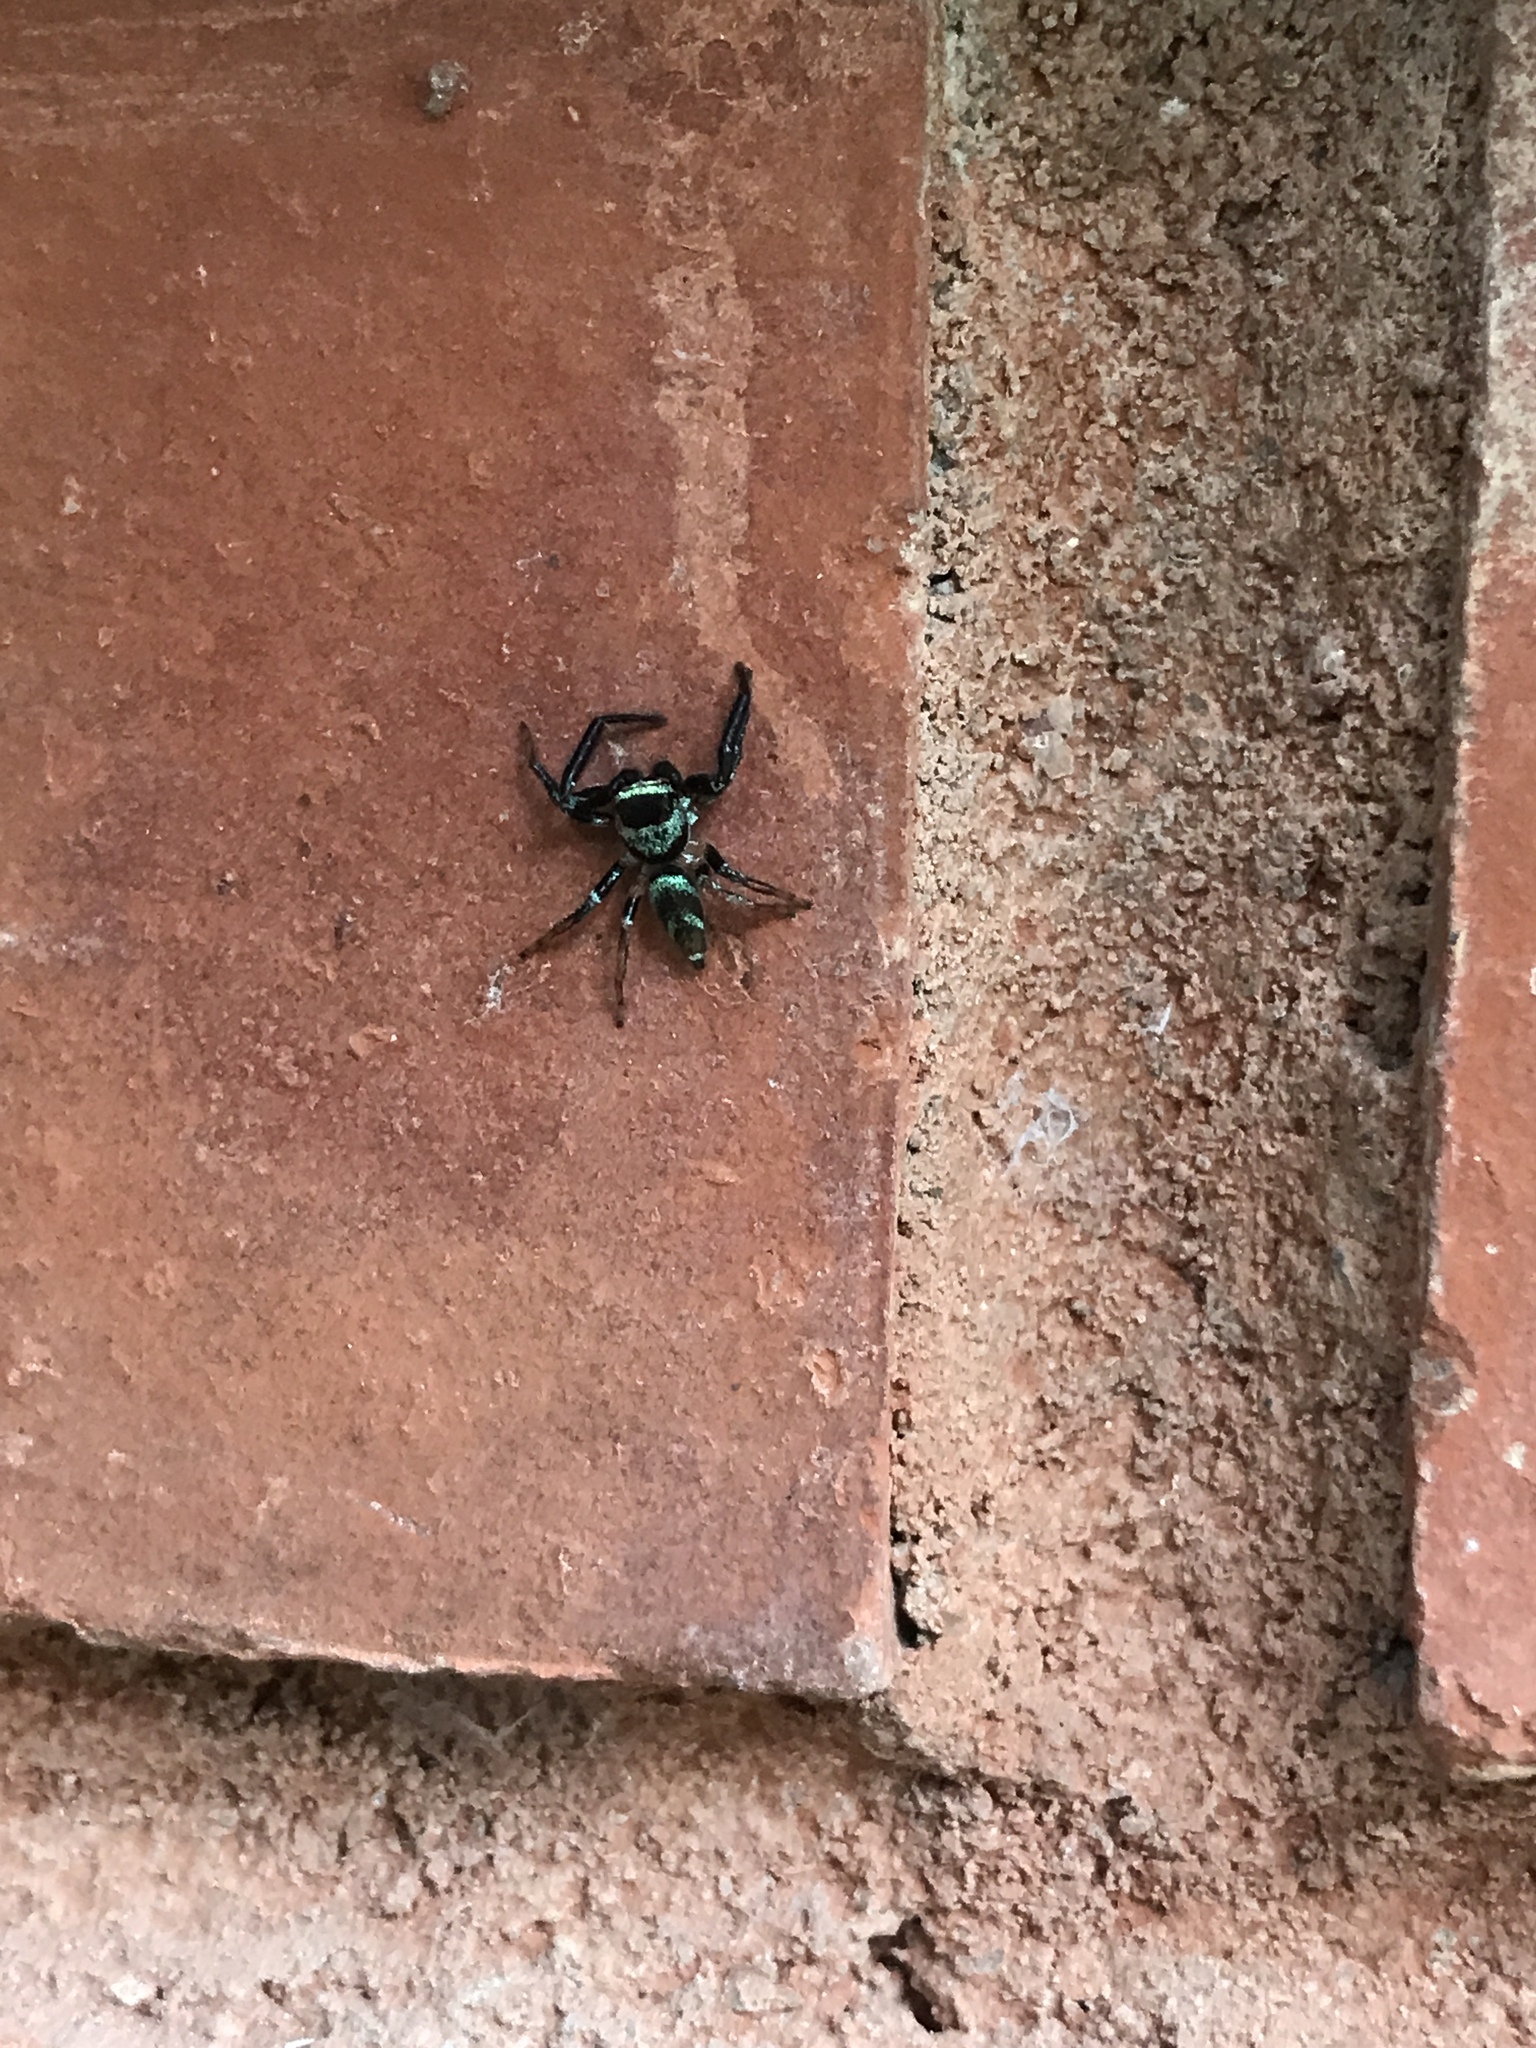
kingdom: Animalia
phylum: Arthropoda
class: Arachnida
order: Araneae
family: Salticidae
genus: Thiania
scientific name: Thiania bhamoensis
